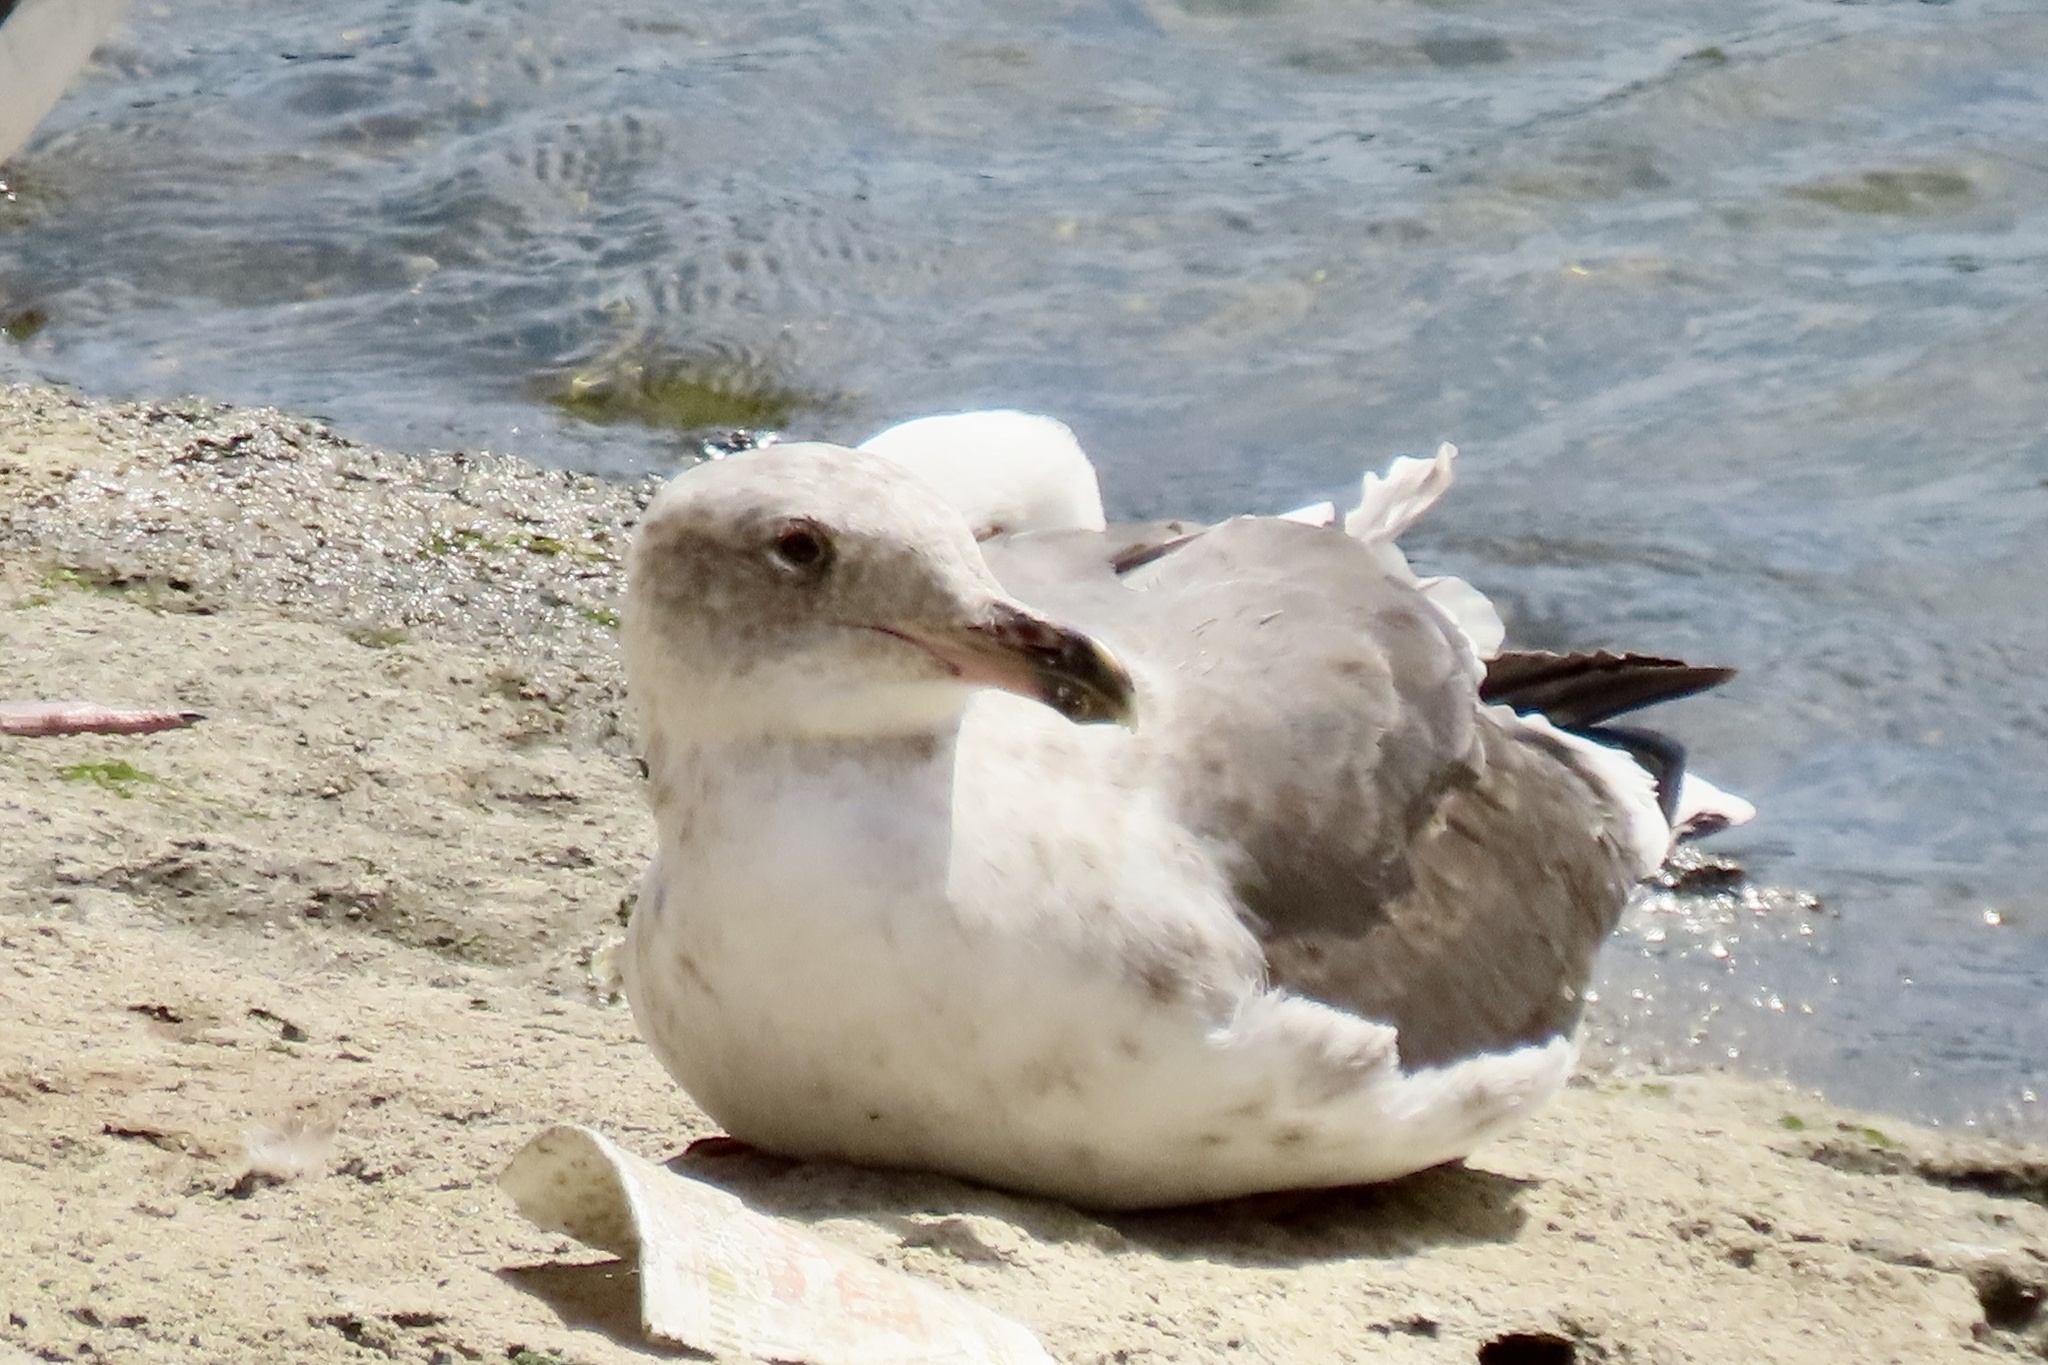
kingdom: Animalia
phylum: Chordata
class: Aves
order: Charadriiformes
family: Laridae
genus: Larus
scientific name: Larus occidentalis
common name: Western gull
